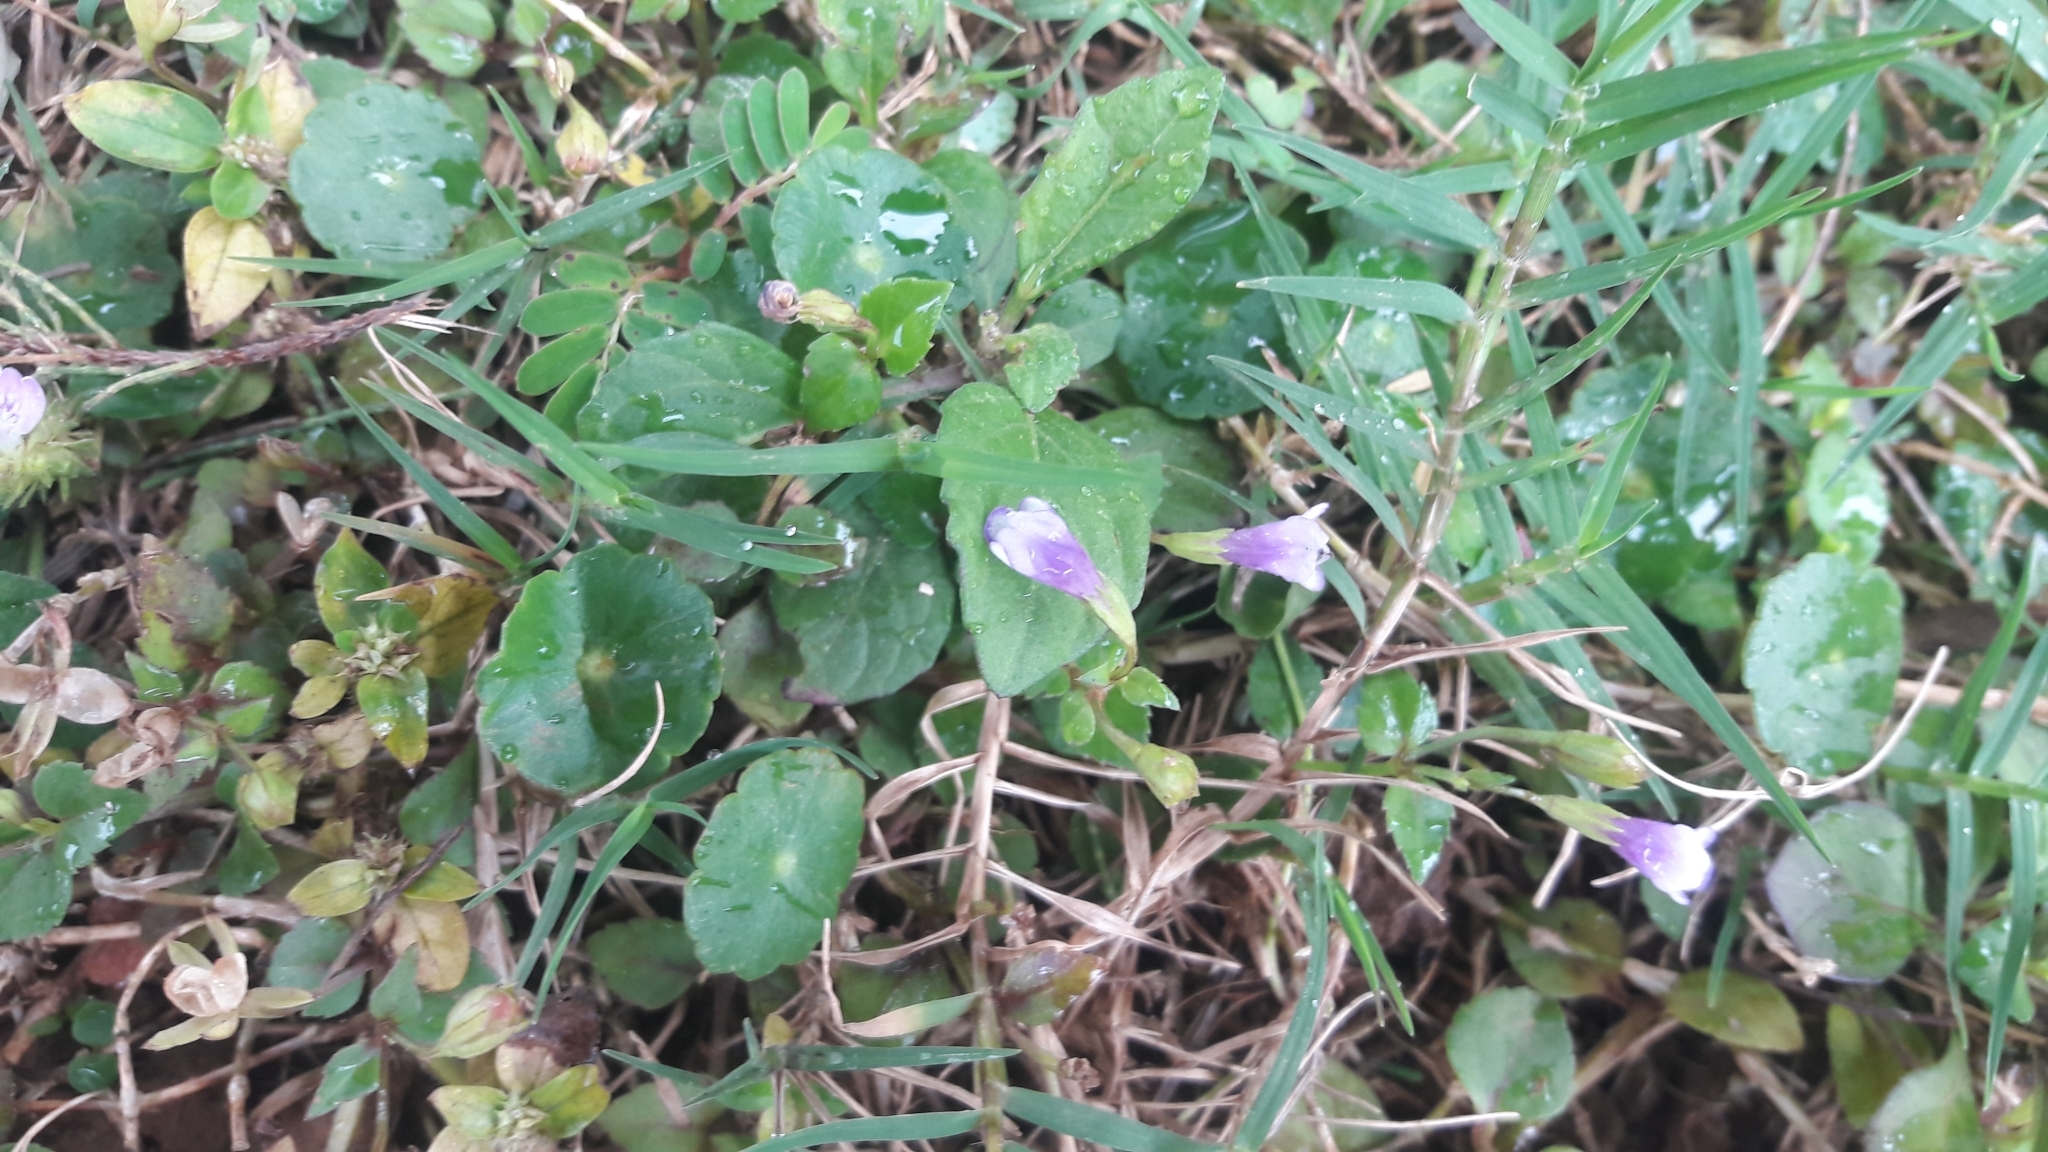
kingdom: Plantae
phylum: Tracheophyta
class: Magnoliopsida
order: Lamiales
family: Linderniaceae
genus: Torenia
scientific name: Torenia crustacea
